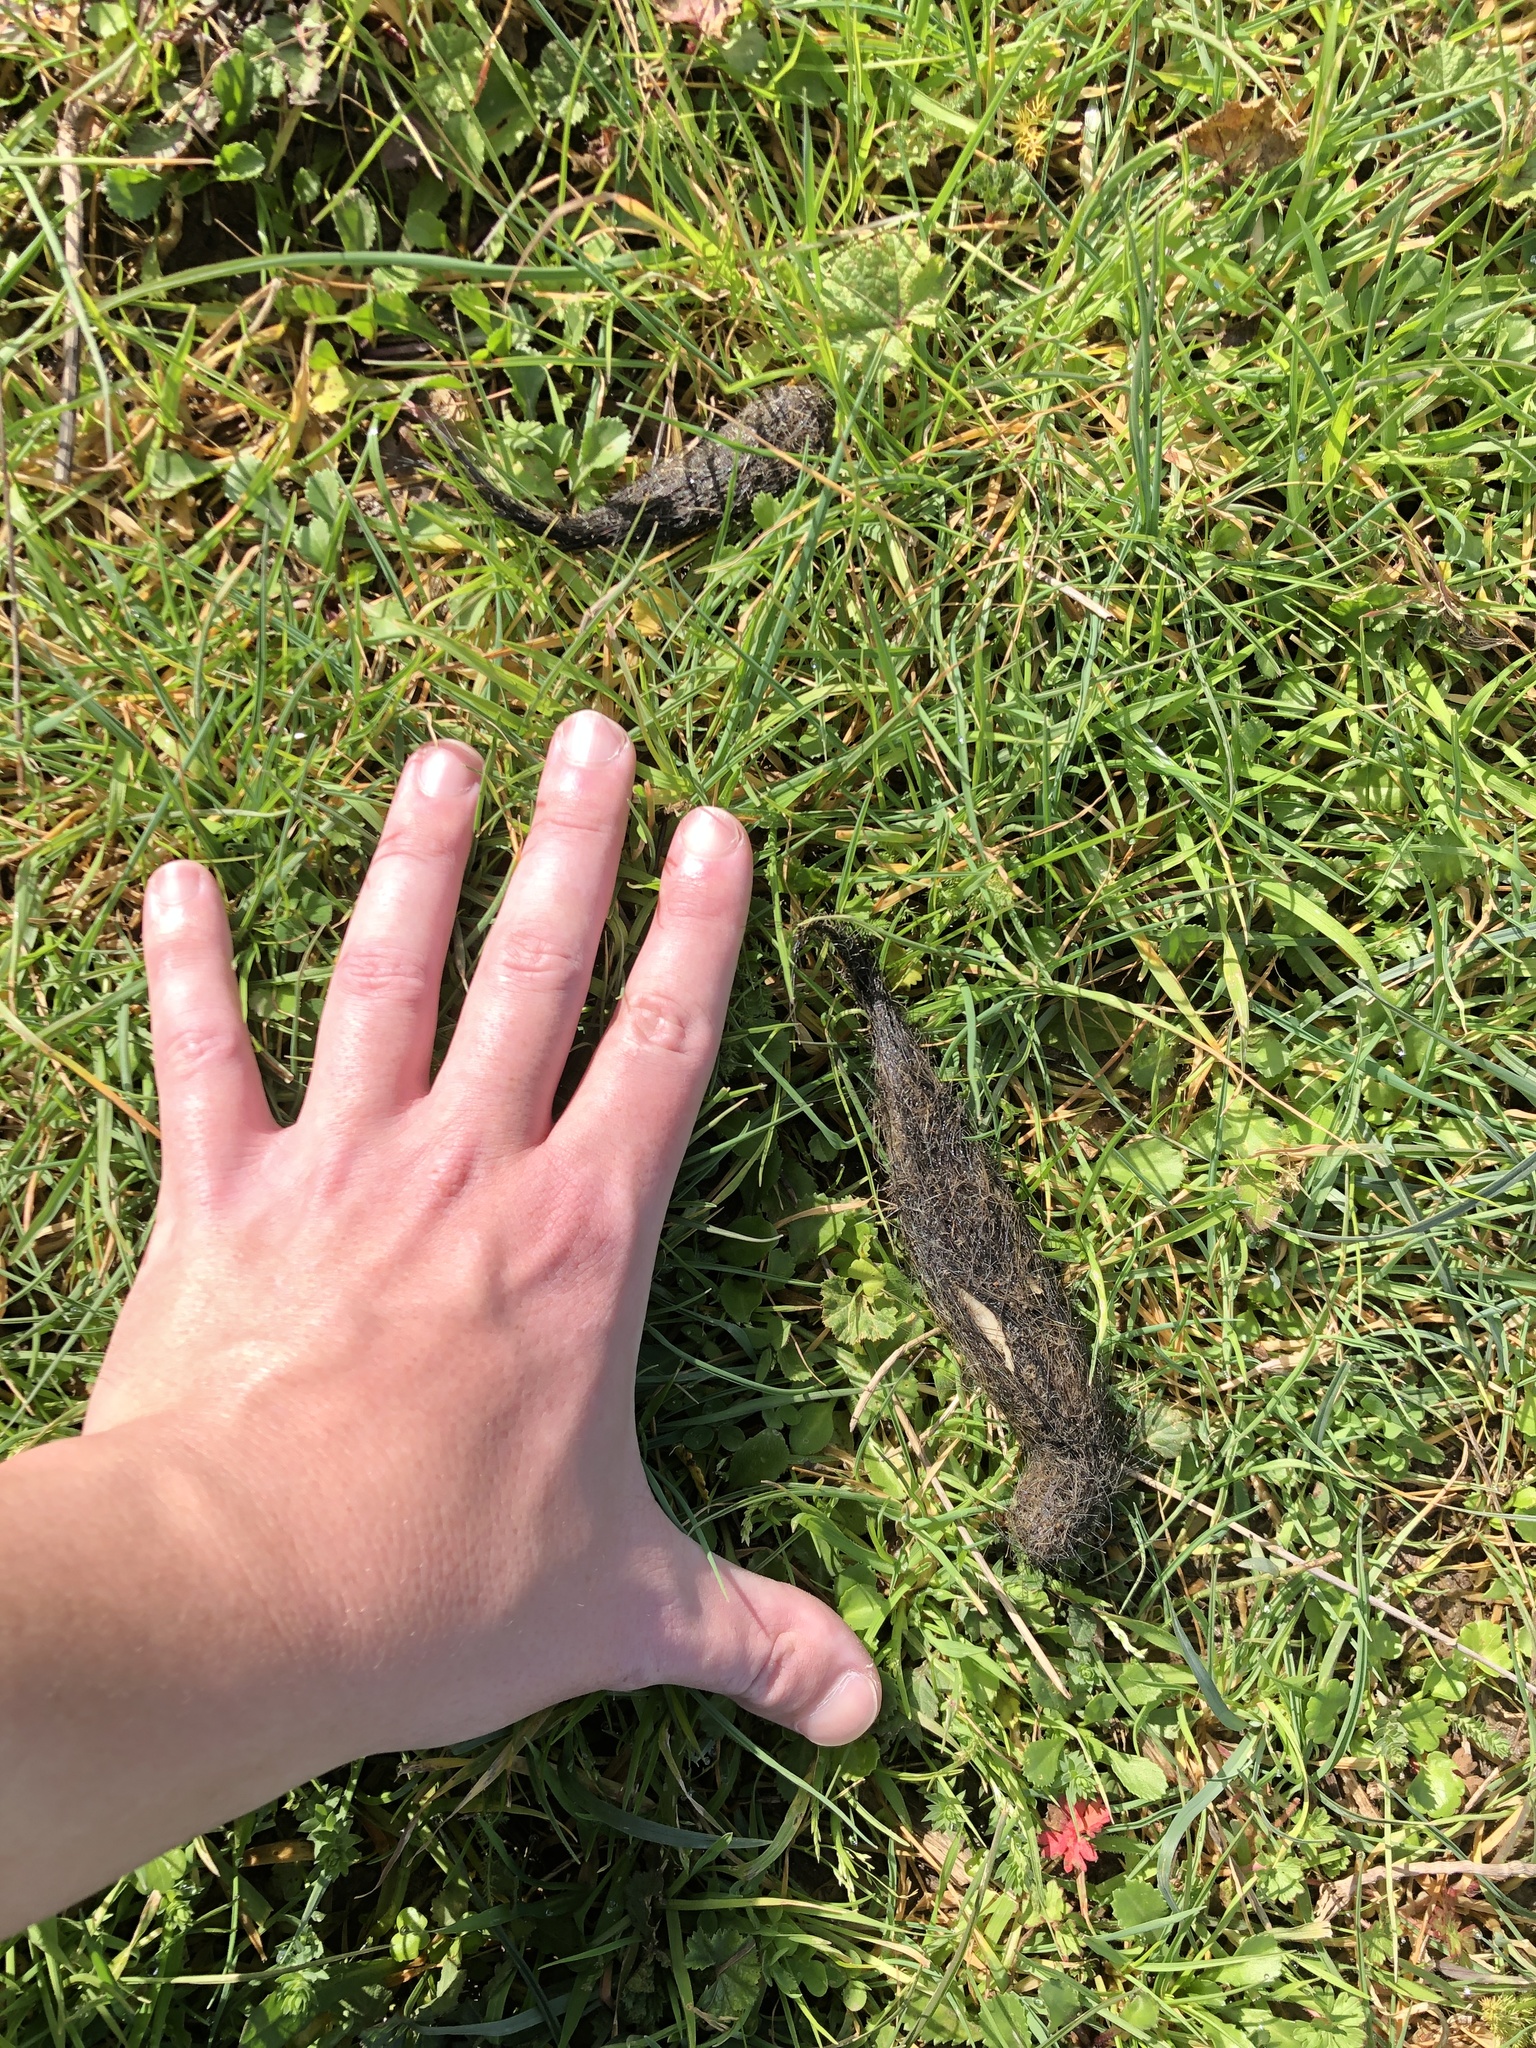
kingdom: Animalia
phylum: Chordata
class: Mammalia
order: Carnivora
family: Canidae
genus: Canis
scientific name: Canis lupus
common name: Gray wolf
